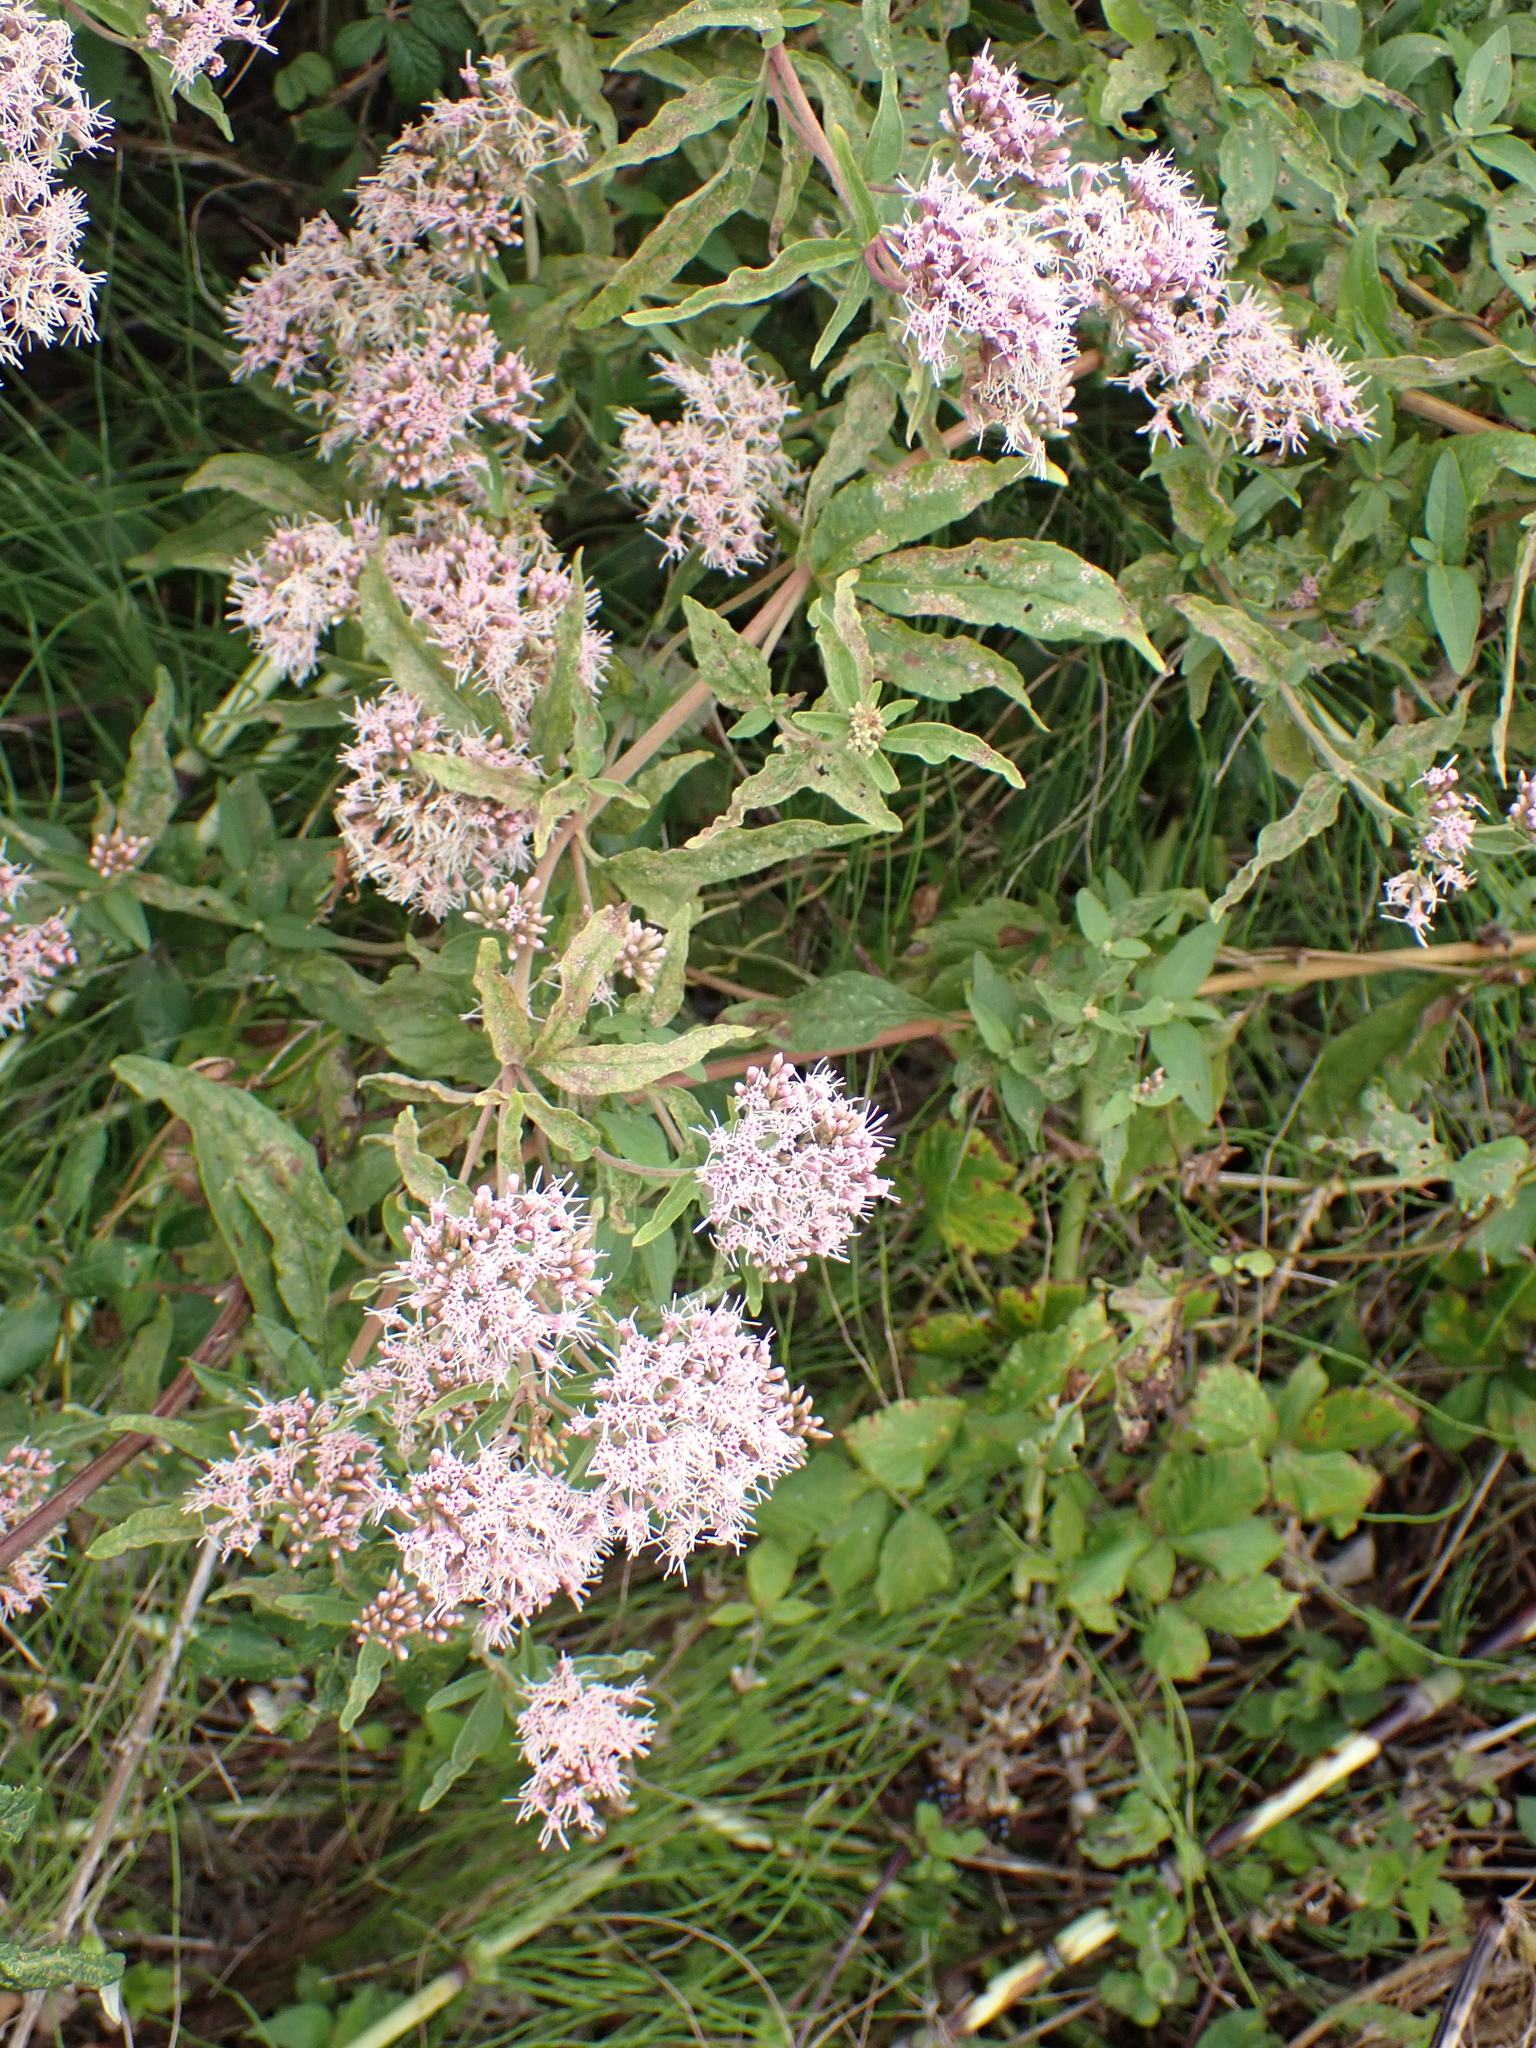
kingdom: Plantae
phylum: Tracheophyta
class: Magnoliopsida
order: Asterales
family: Asteraceae
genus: Eupatorium
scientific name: Eupatorium cannabinum
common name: Hemp-agrimony
